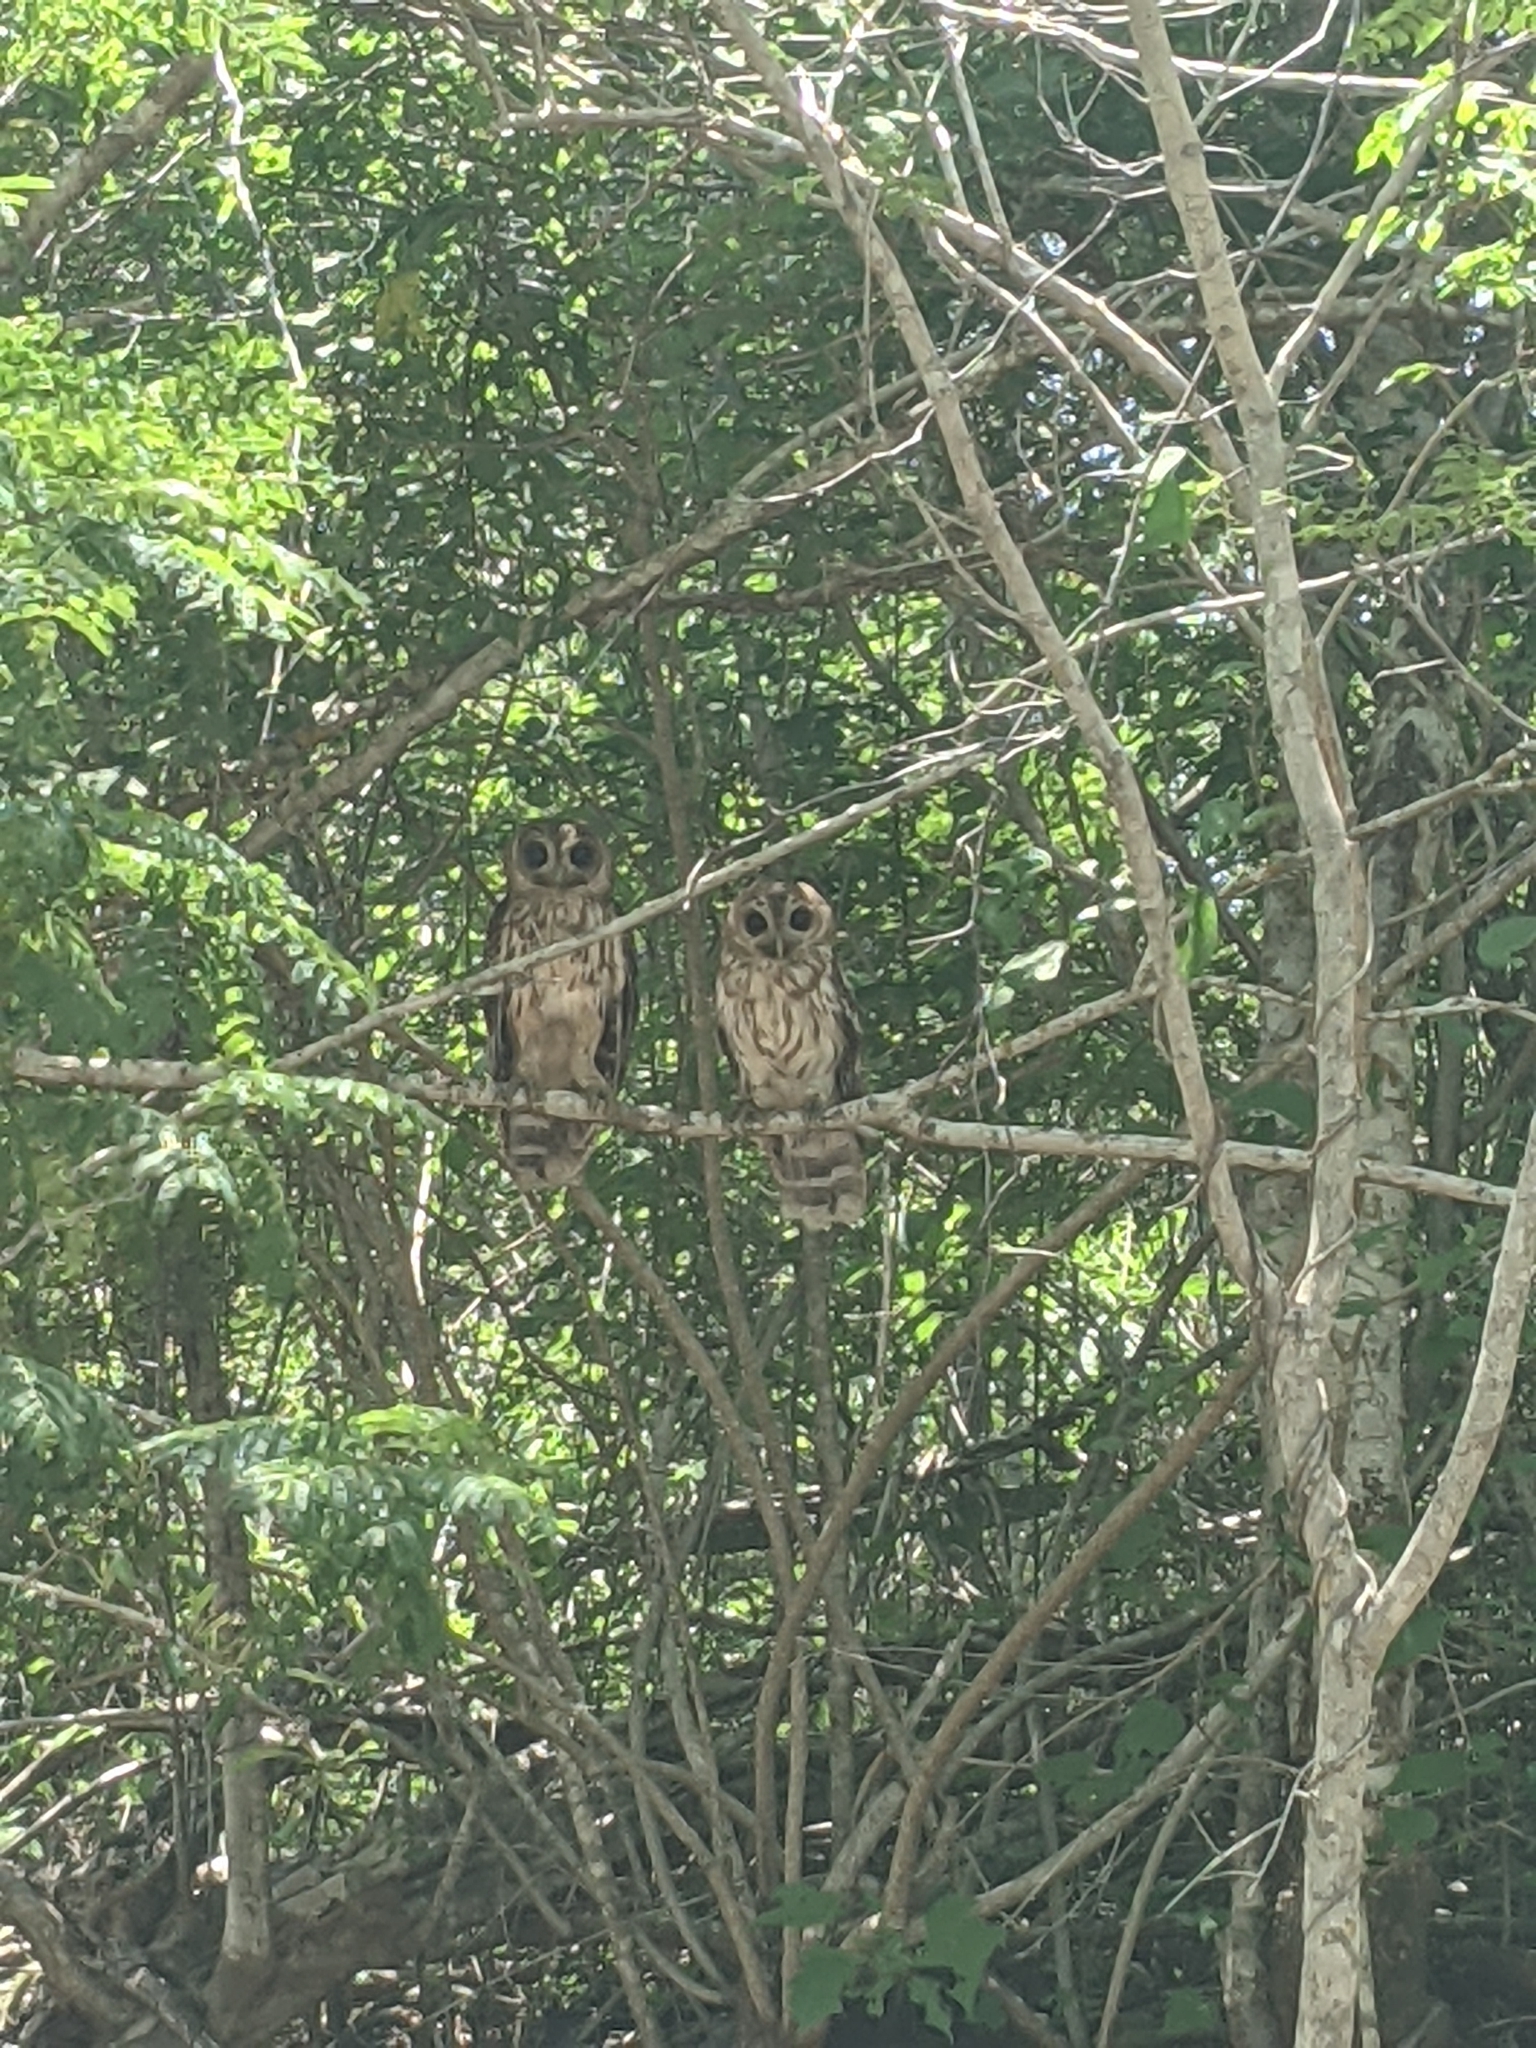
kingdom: Animalia
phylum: Chordata
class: Aves
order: Strigiformes
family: Strigidae
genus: Strix
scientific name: Strix virgata
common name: Mottled owl
